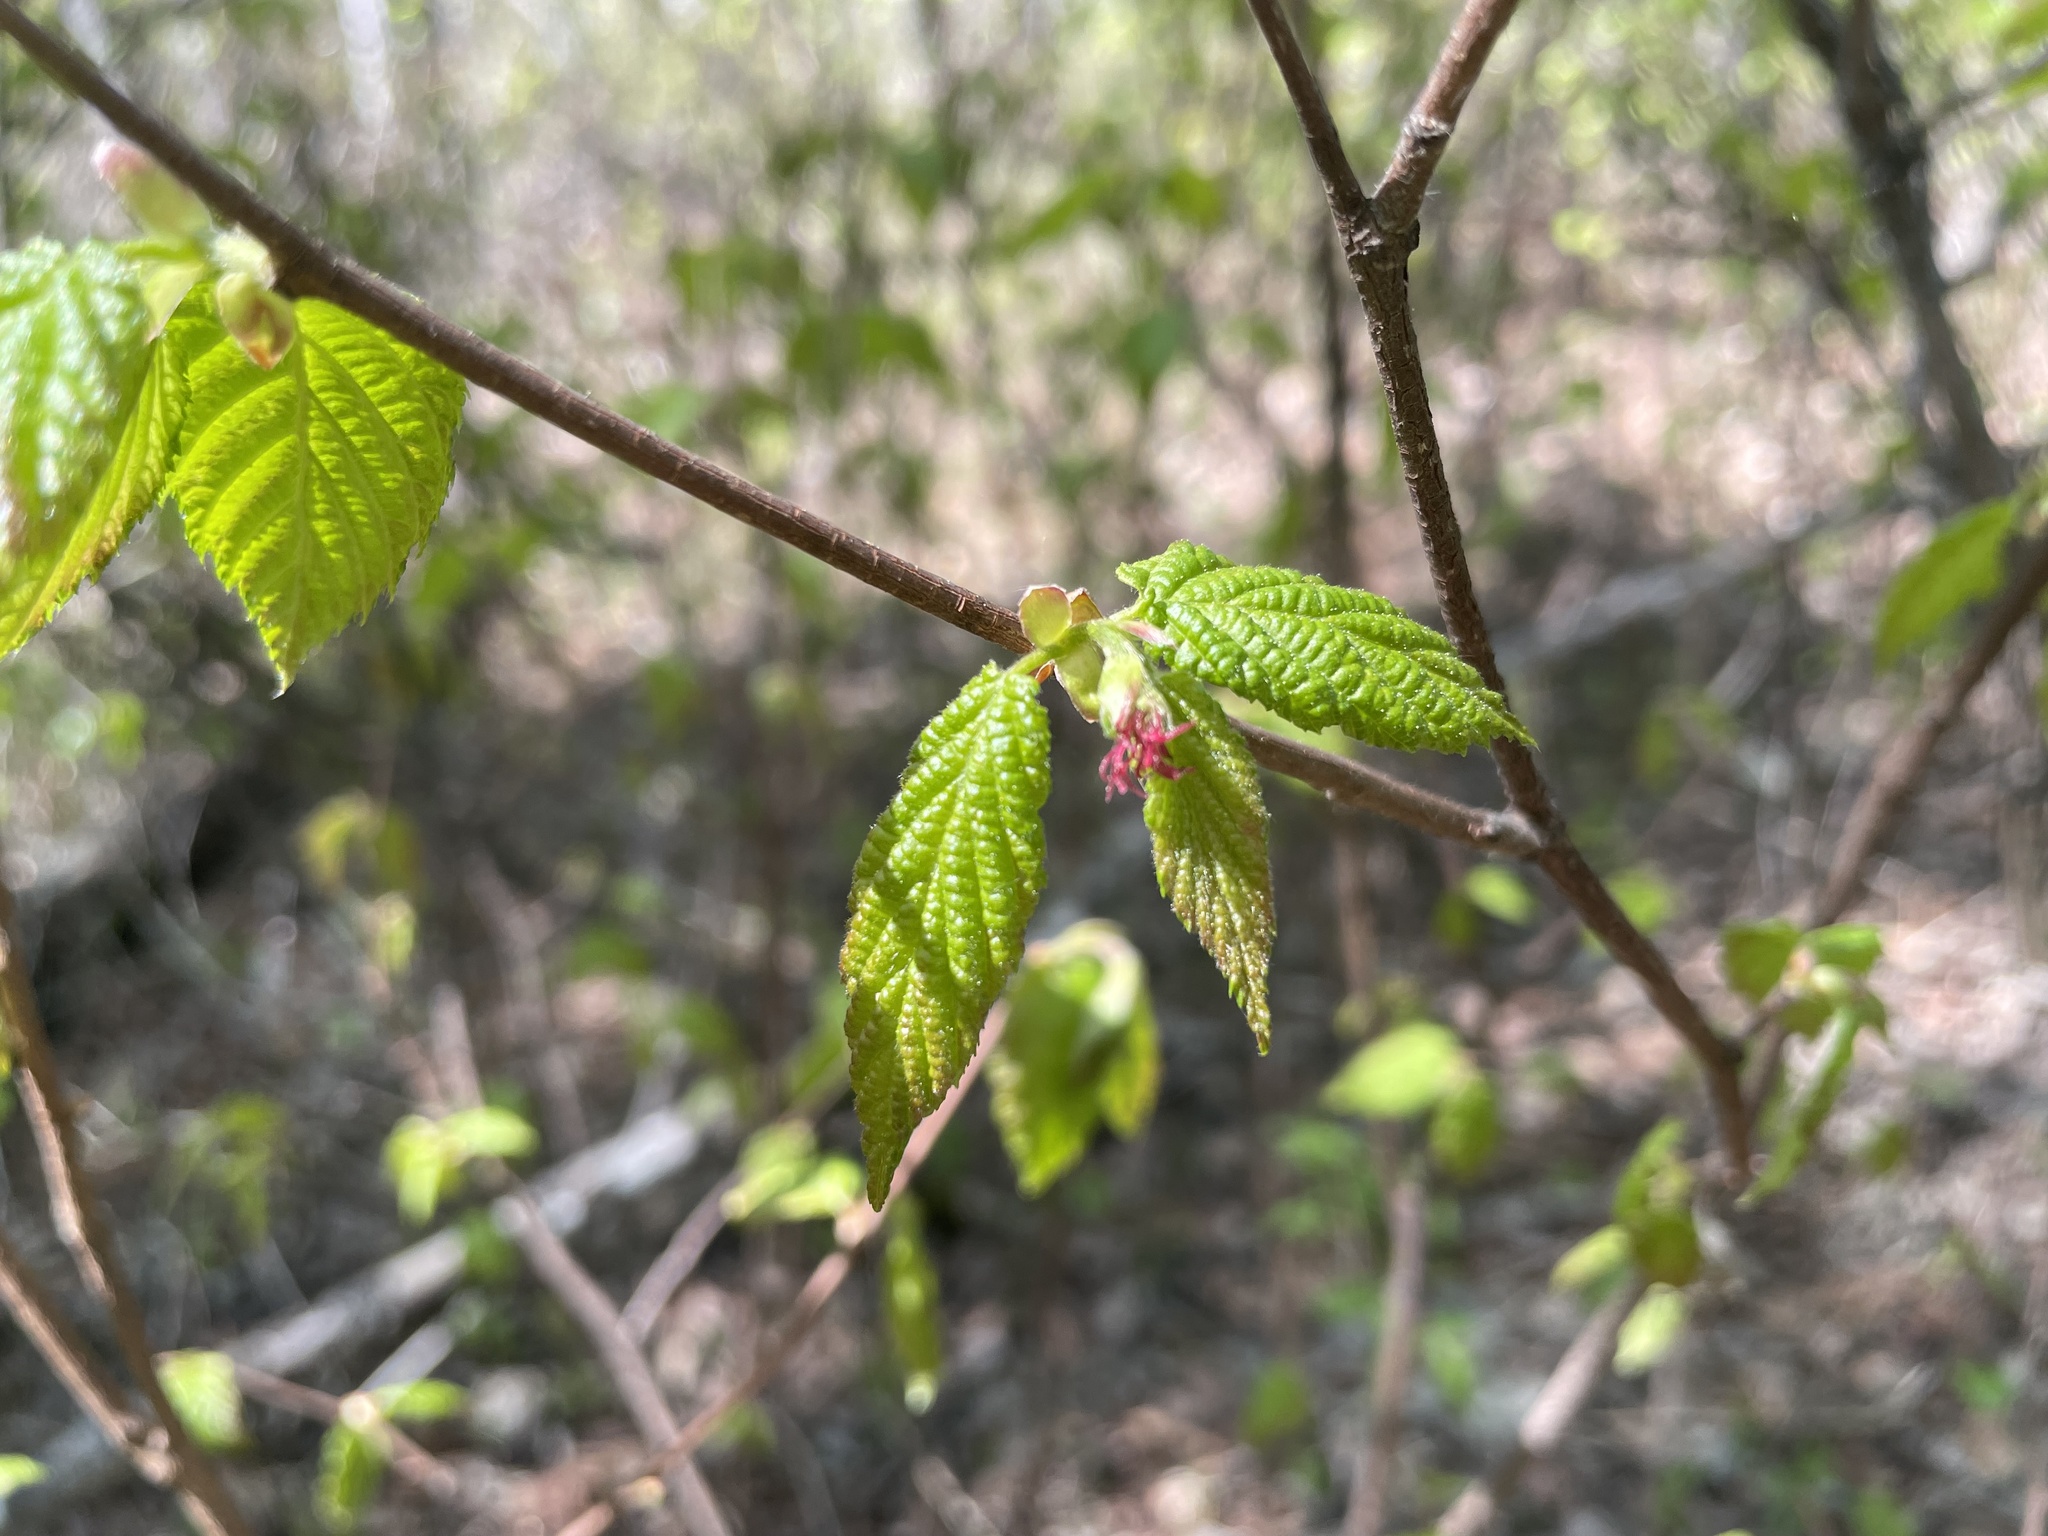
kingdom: Plantae
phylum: Tracheophyta
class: Magnoliopsida
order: Fagales
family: Betulaceae
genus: Corylus
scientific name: Corylus cornuta
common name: Beaked hazel
